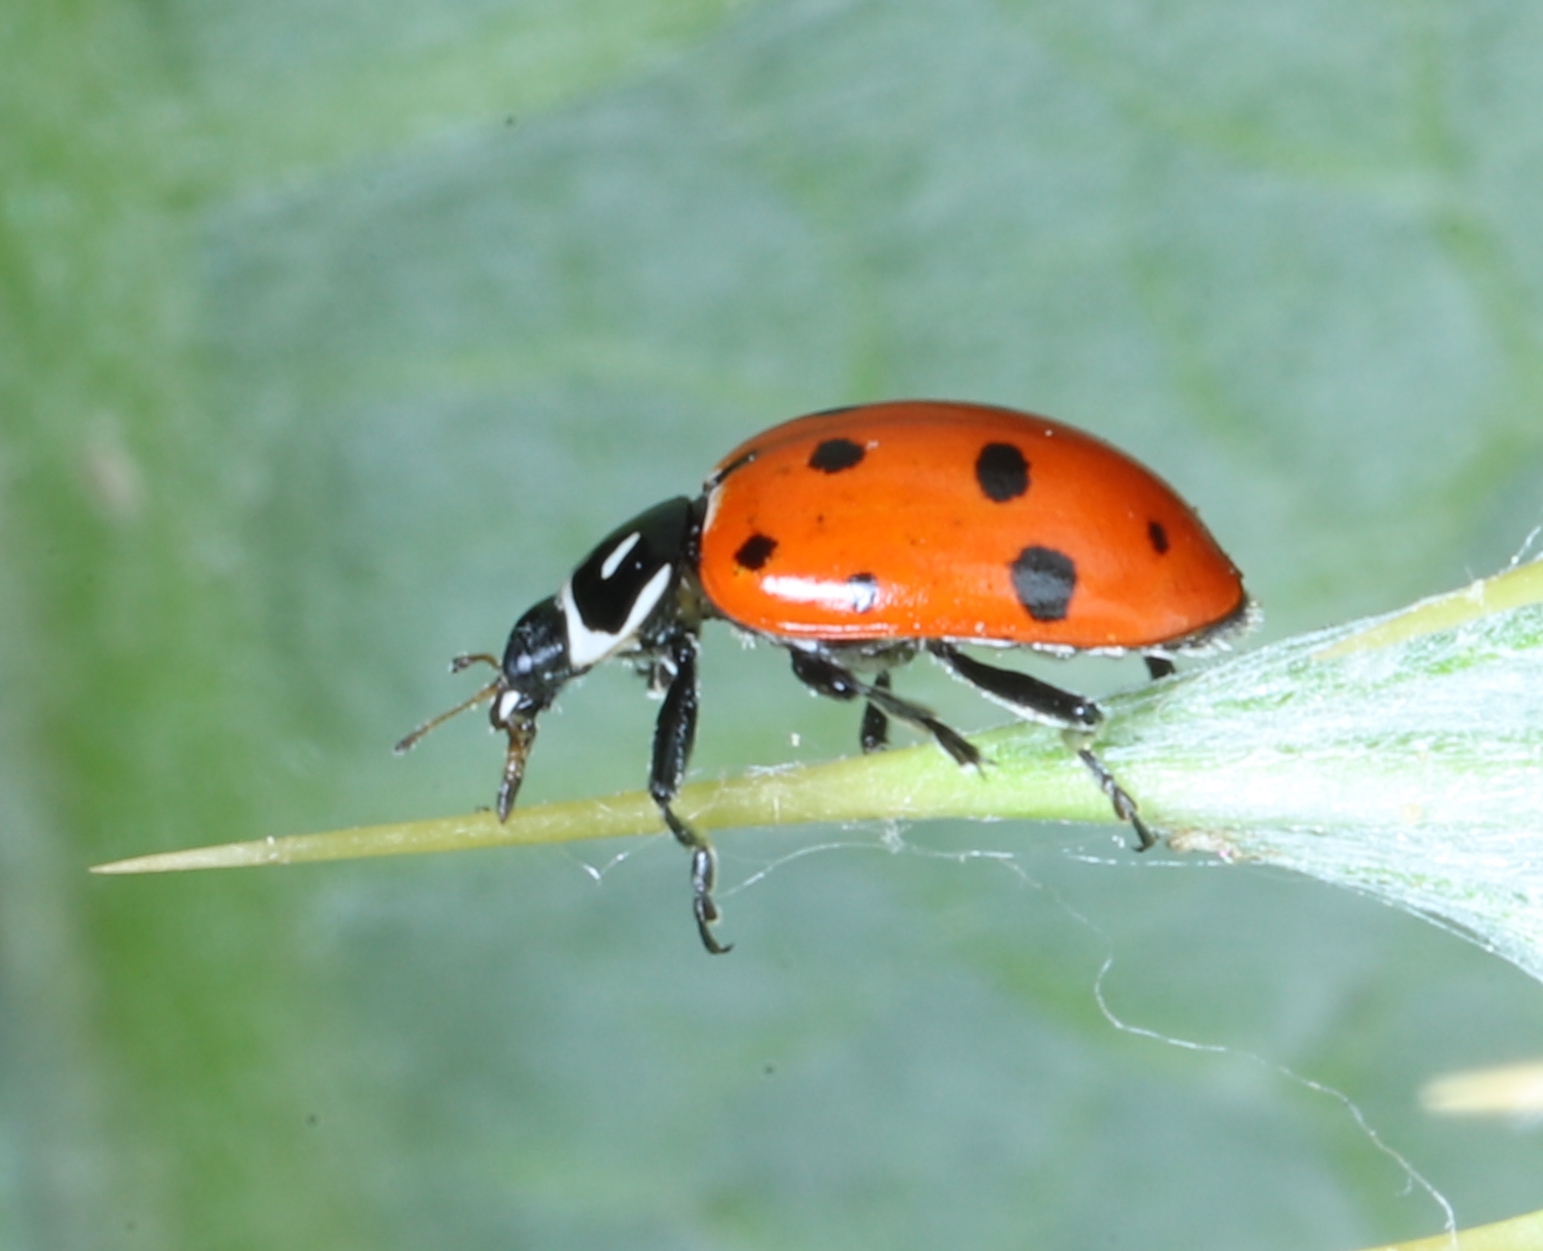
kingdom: Animalia
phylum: Arthropoda
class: Insecta
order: Coleoptera
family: Coccinellidae
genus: Hippodamia
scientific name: Hippodamia convergens
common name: Convergent lady beetle
